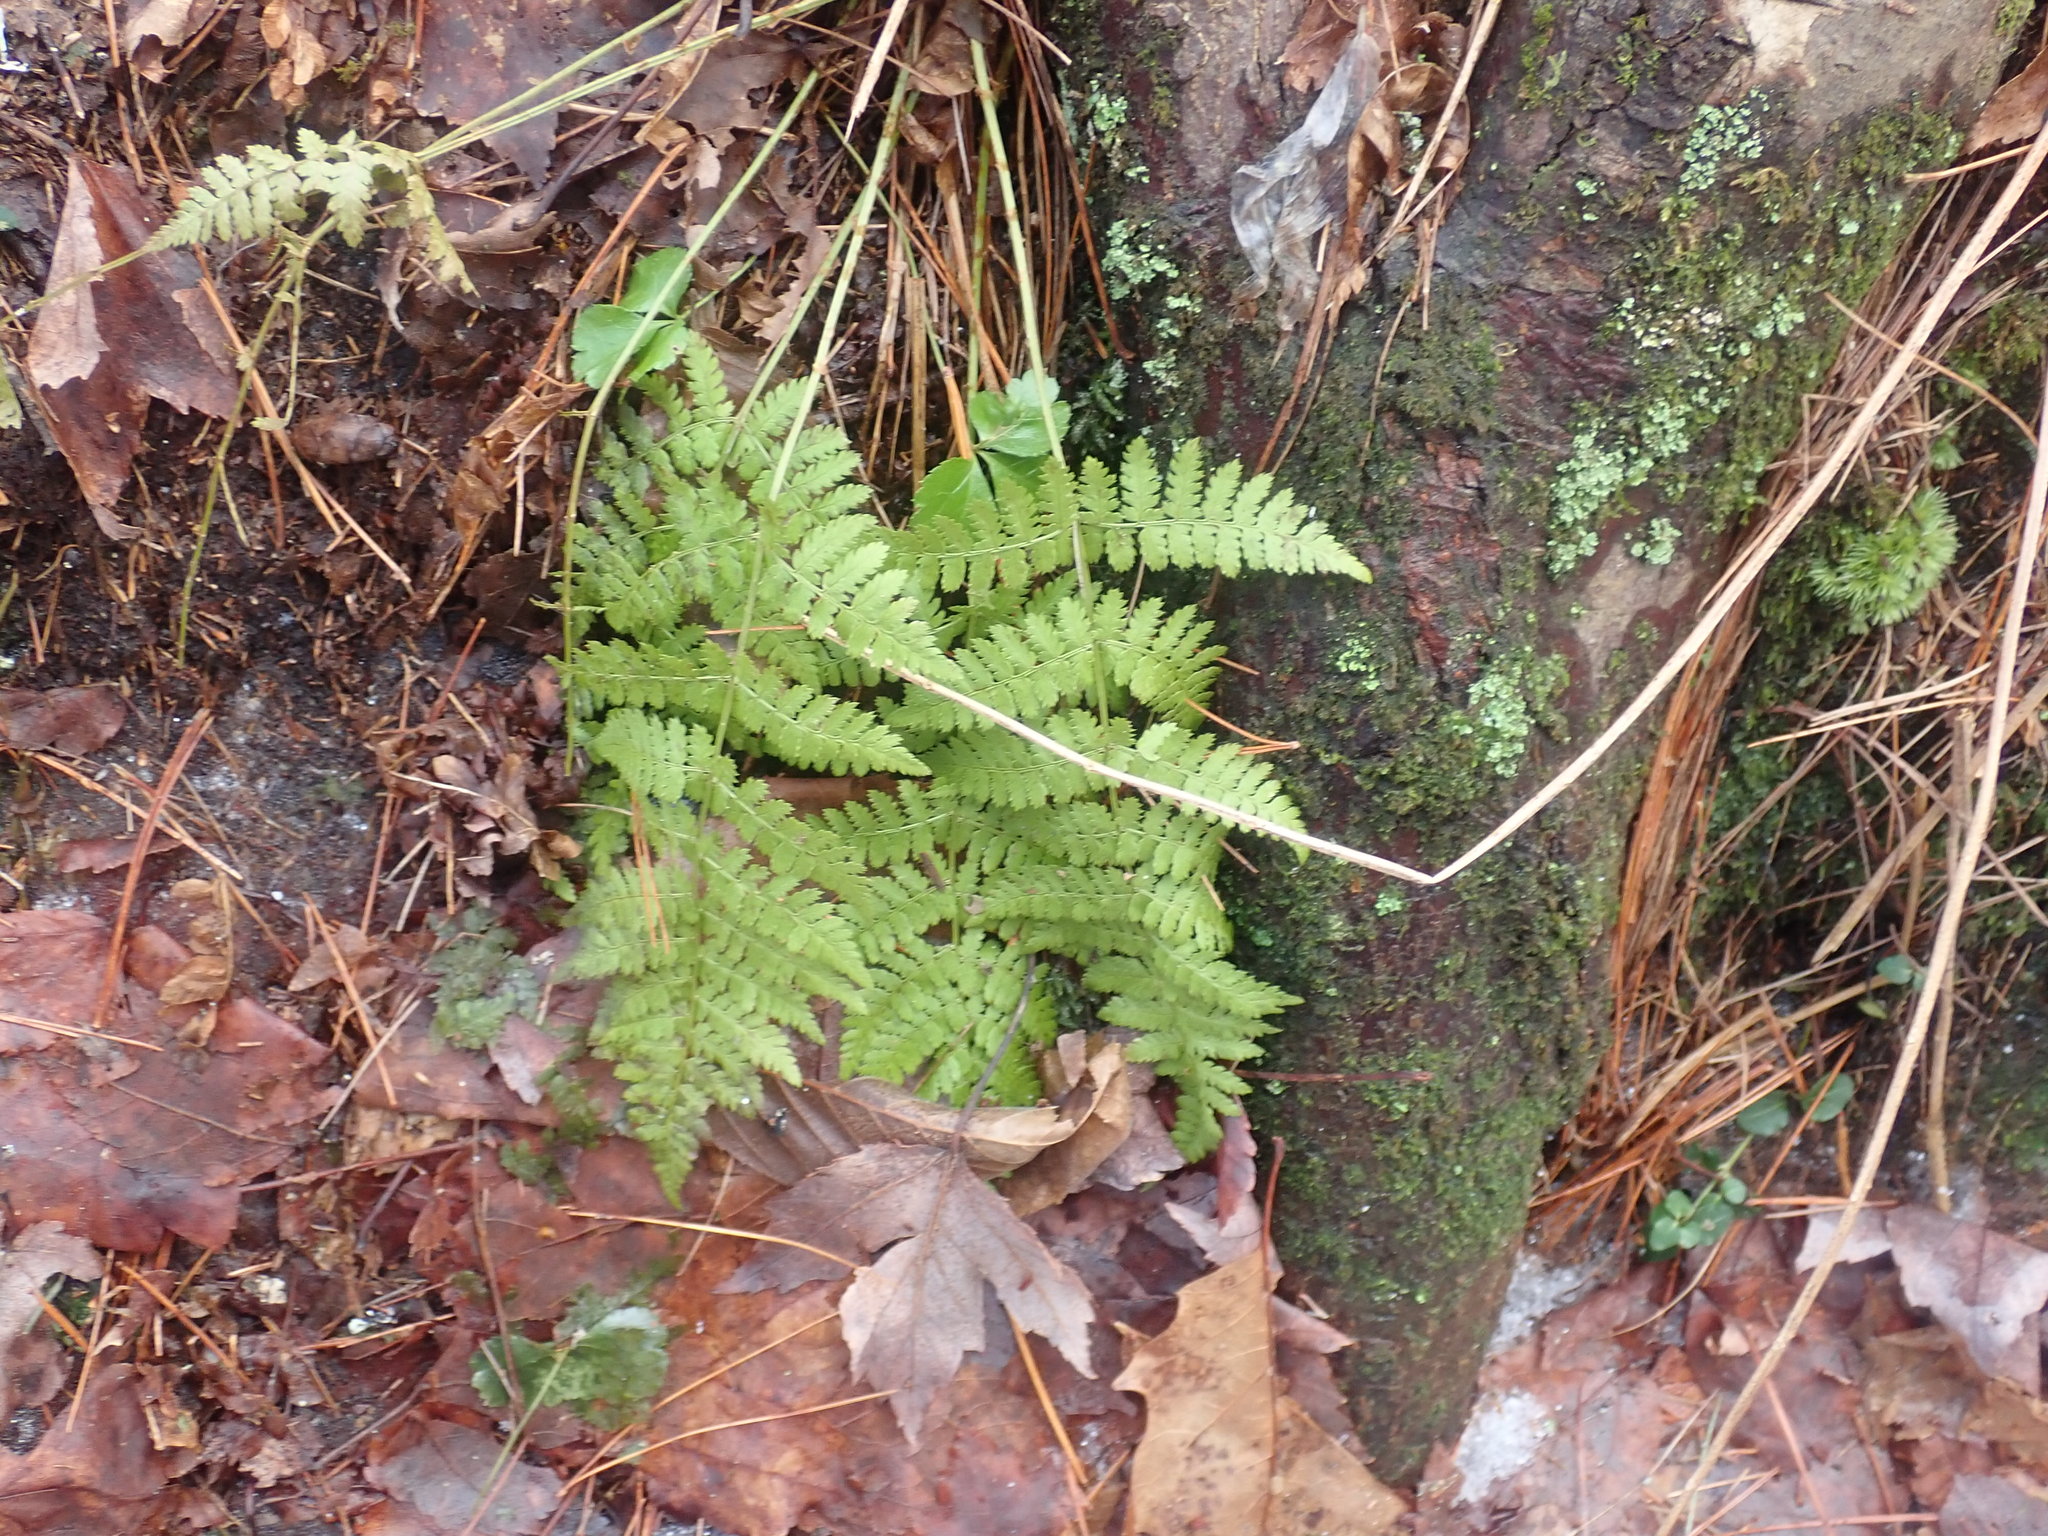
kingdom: Plantae
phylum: Tracheophyta
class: Polypodiopsida
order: Polypodiales
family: Dryopteridaceae
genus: Dryopteris
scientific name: Dryopteris intermedia
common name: Evergreen wood fern
